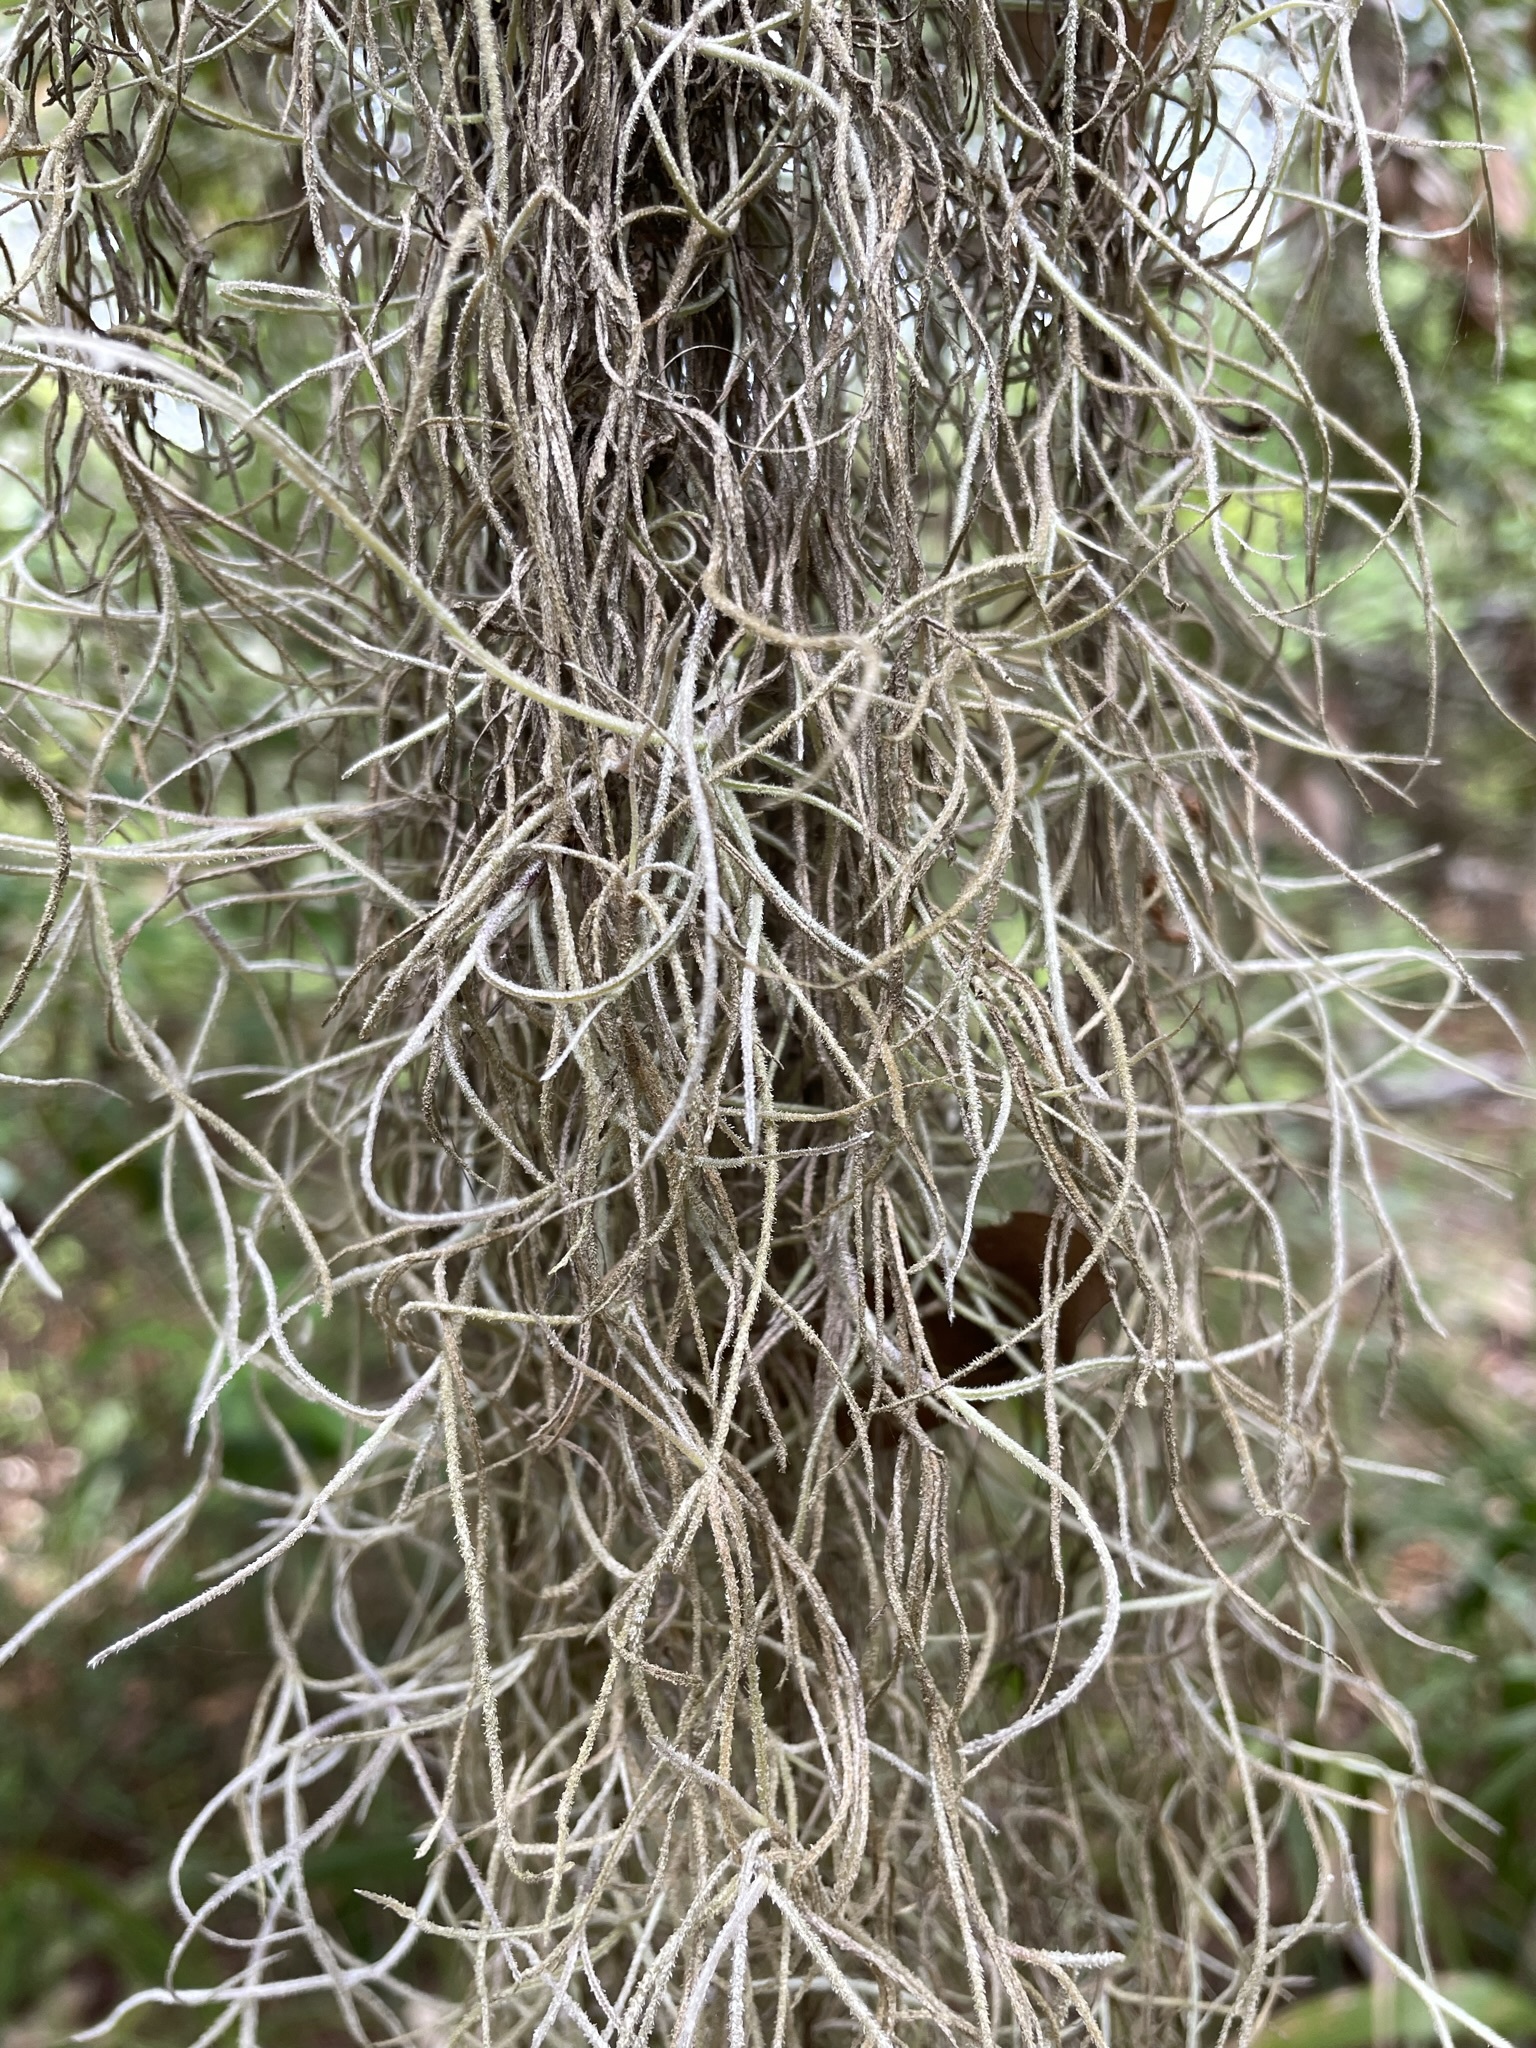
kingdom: Plantae
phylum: Tracheophyta
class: Liliopsida
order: Poales
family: Bromeliaceae
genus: Tillandsia
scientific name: Tillandsia usneoides
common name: Spanish moss
